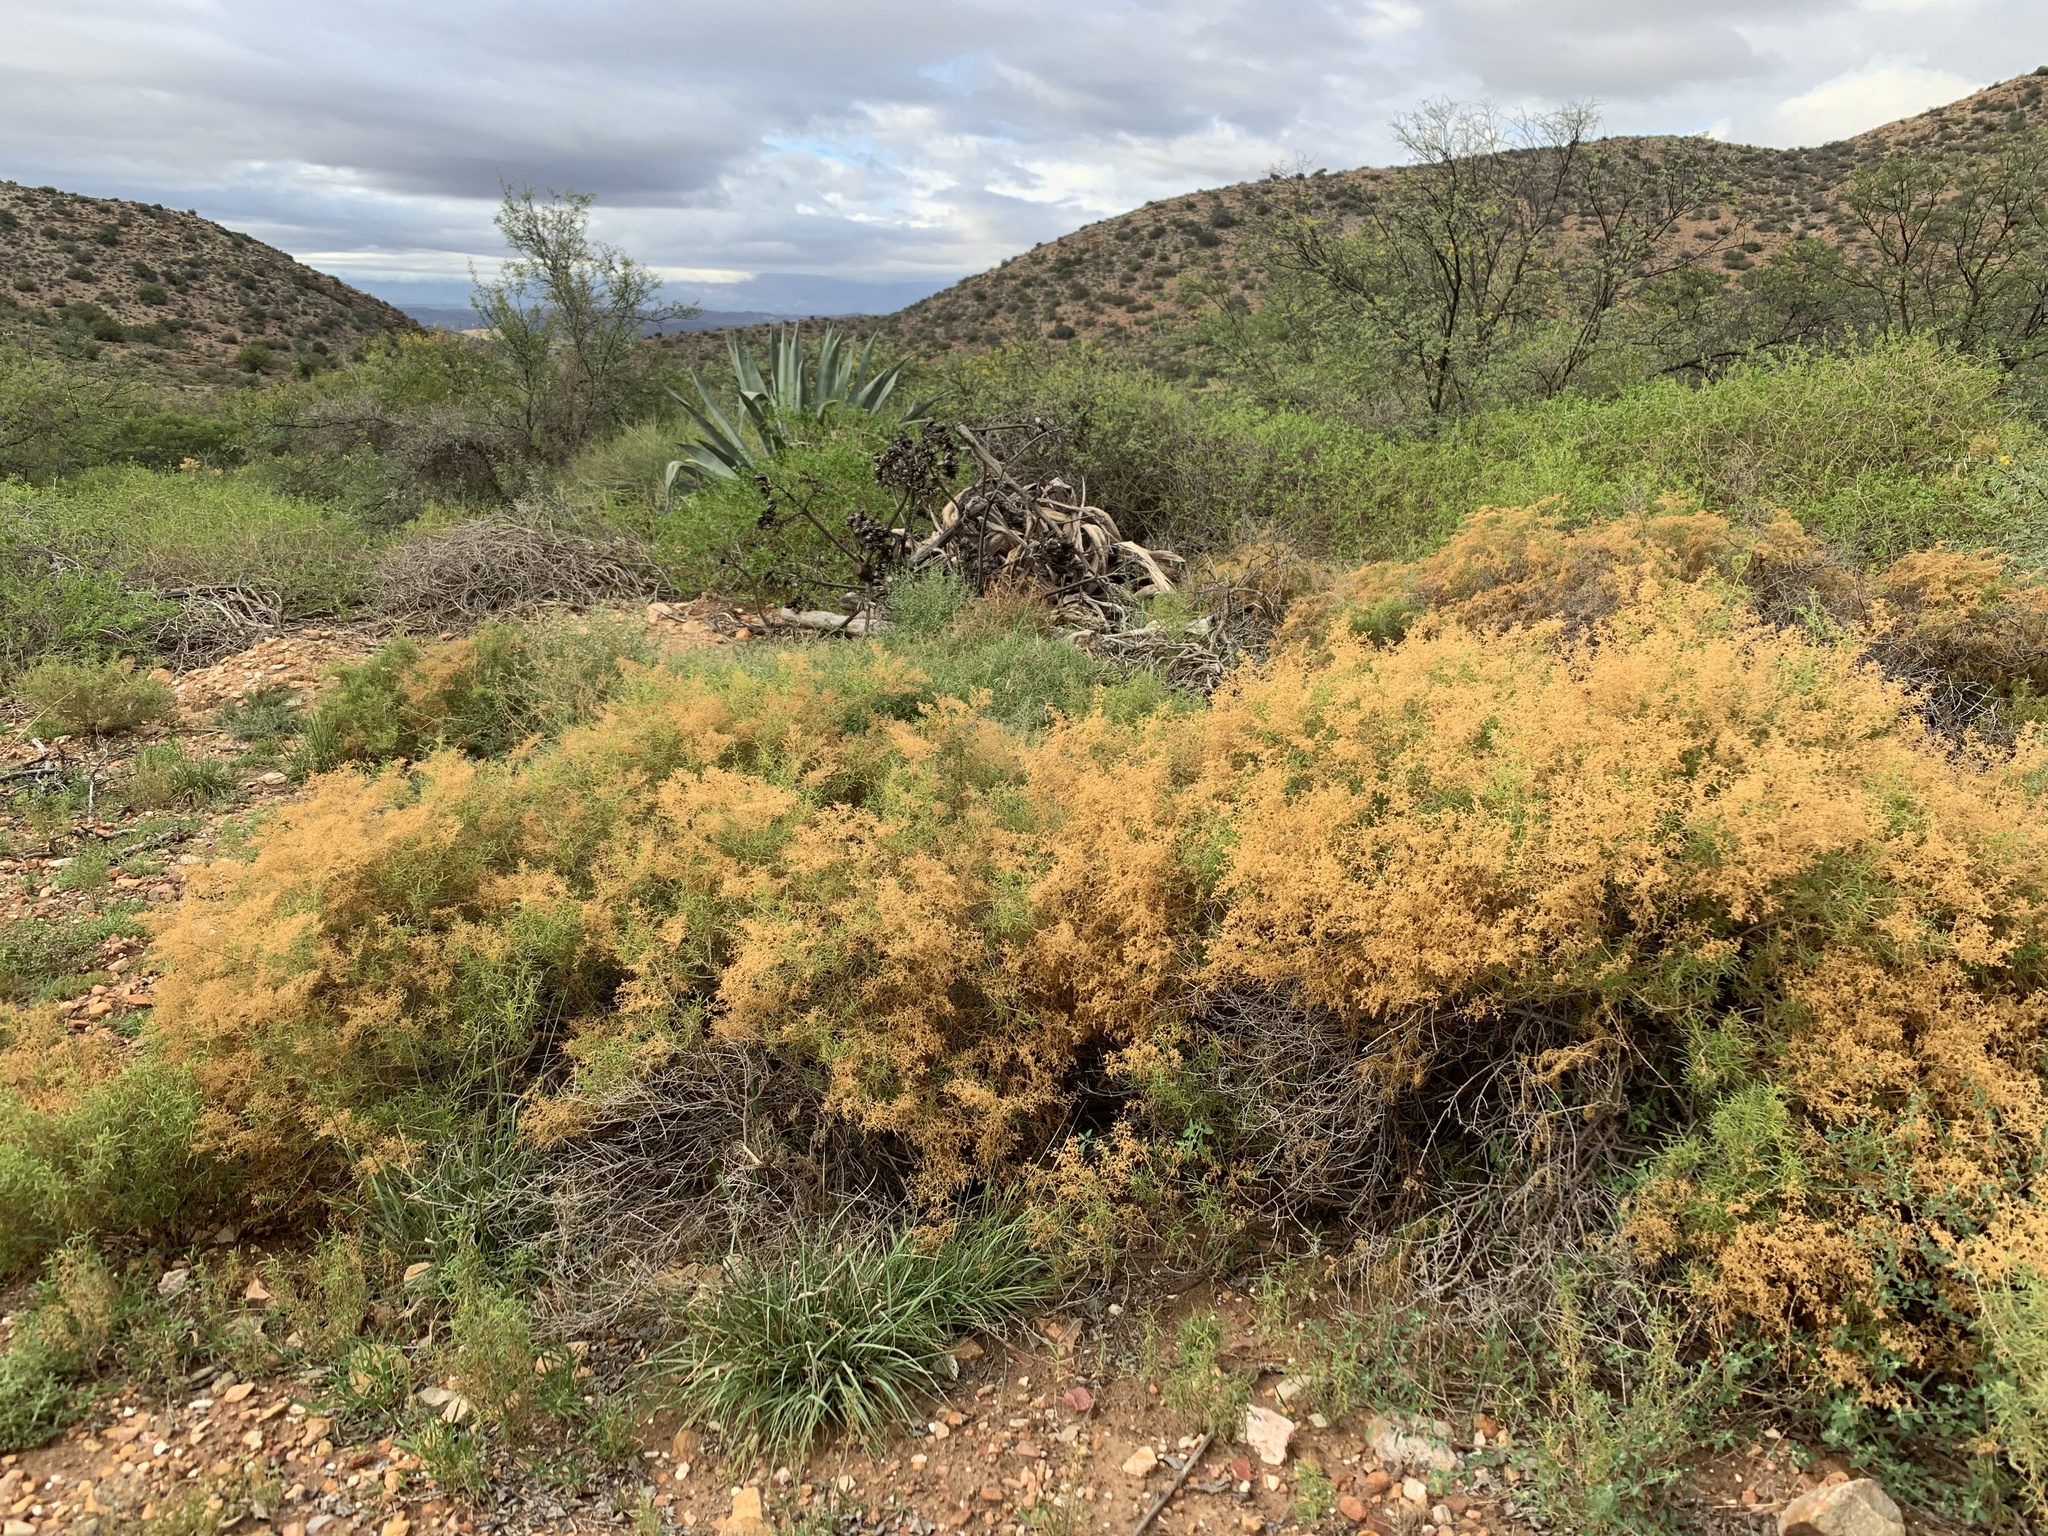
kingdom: Plantae
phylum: Tracheophyta
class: Magnoliopsida
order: Caryophyllales
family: Aizoaceae
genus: Aizoon
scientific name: Aizoon africanum
